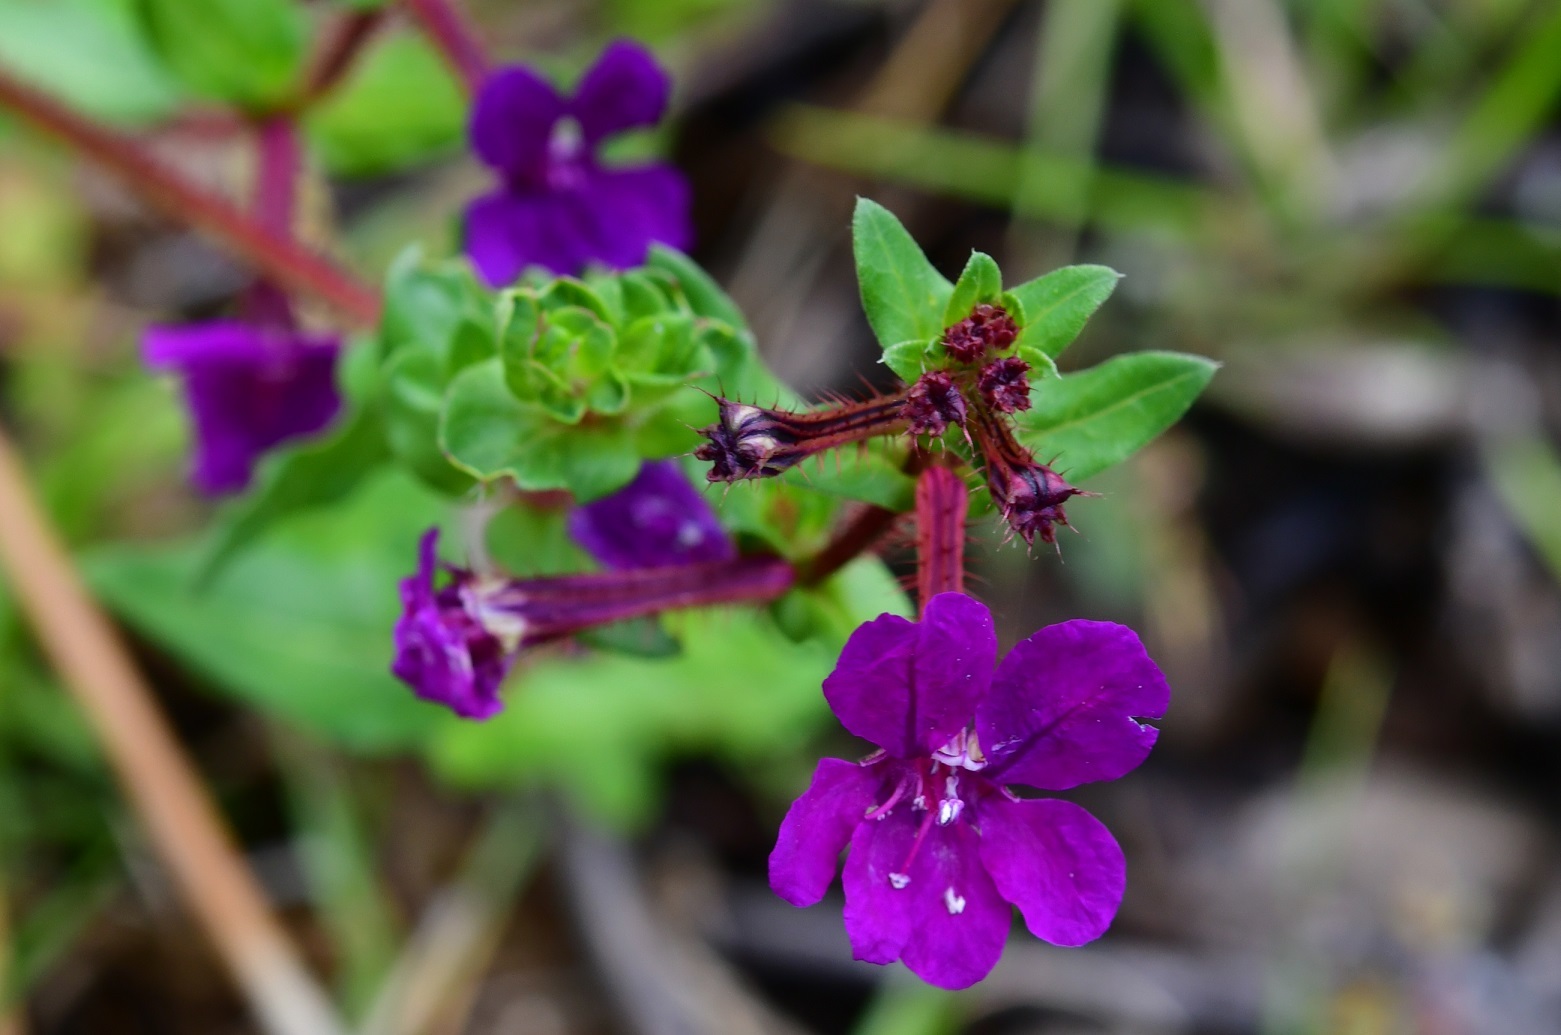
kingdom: Plantae
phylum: Tracheophyta
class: Magnoliopsida
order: Myrtales
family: Lythraceae
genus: Cuphea
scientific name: Cuphea aequipetala
